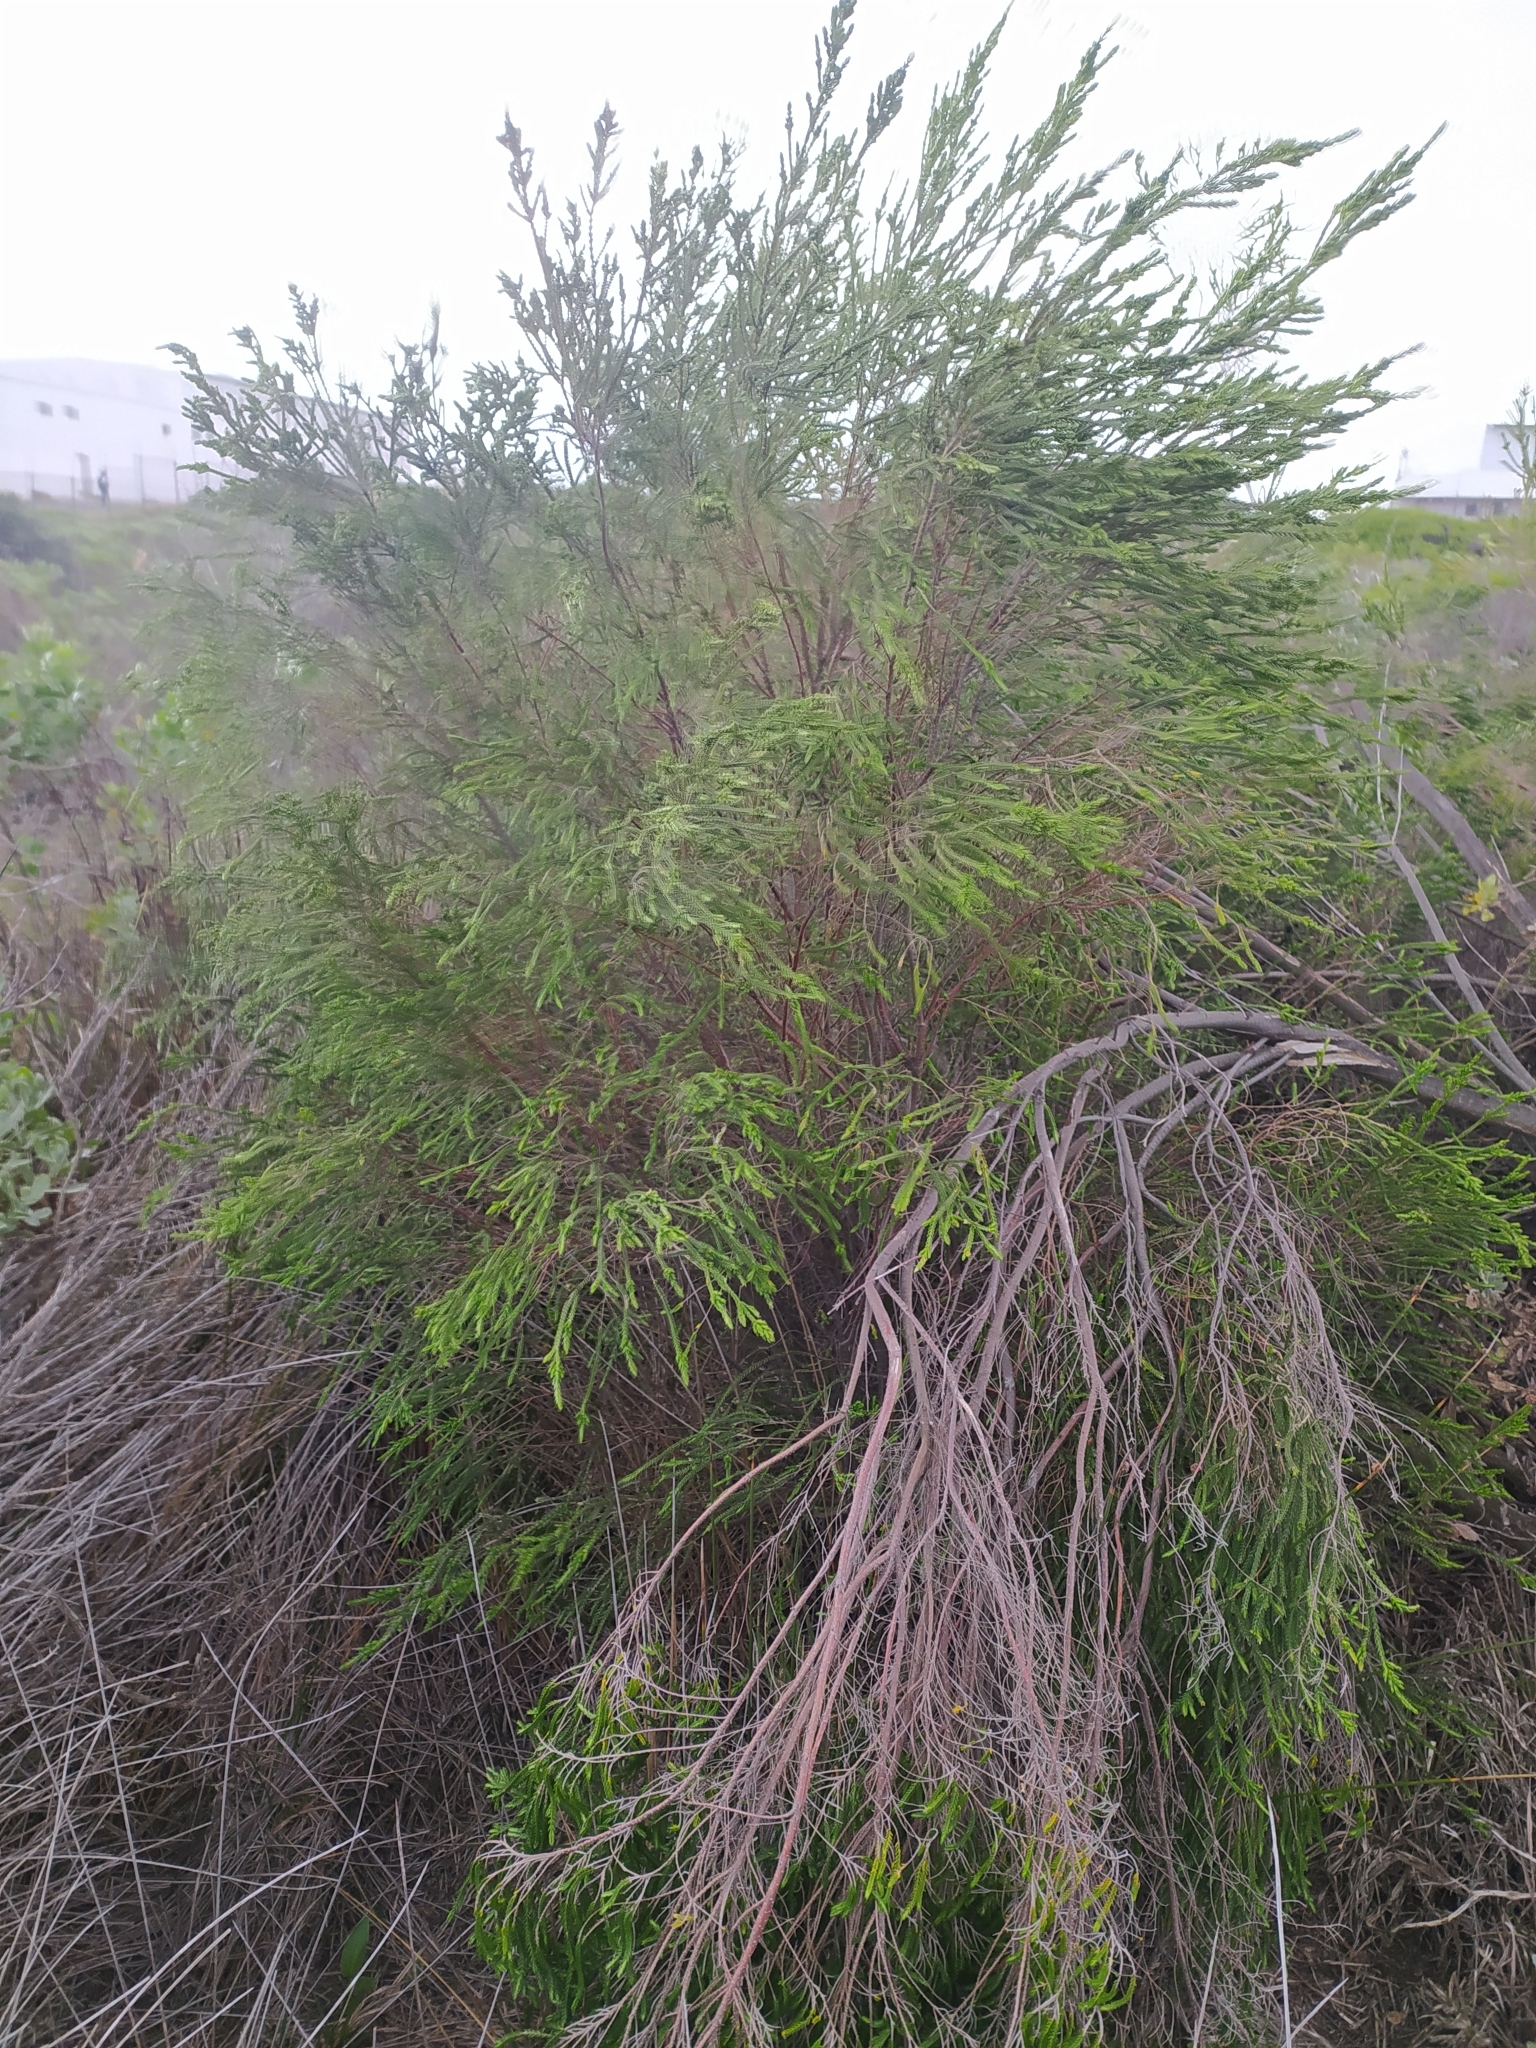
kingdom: Plantae
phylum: Tracheophyta
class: Magnoliopsida
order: Malvales
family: Thymelaeaceae
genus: Passerina
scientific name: Passerina paludosa
